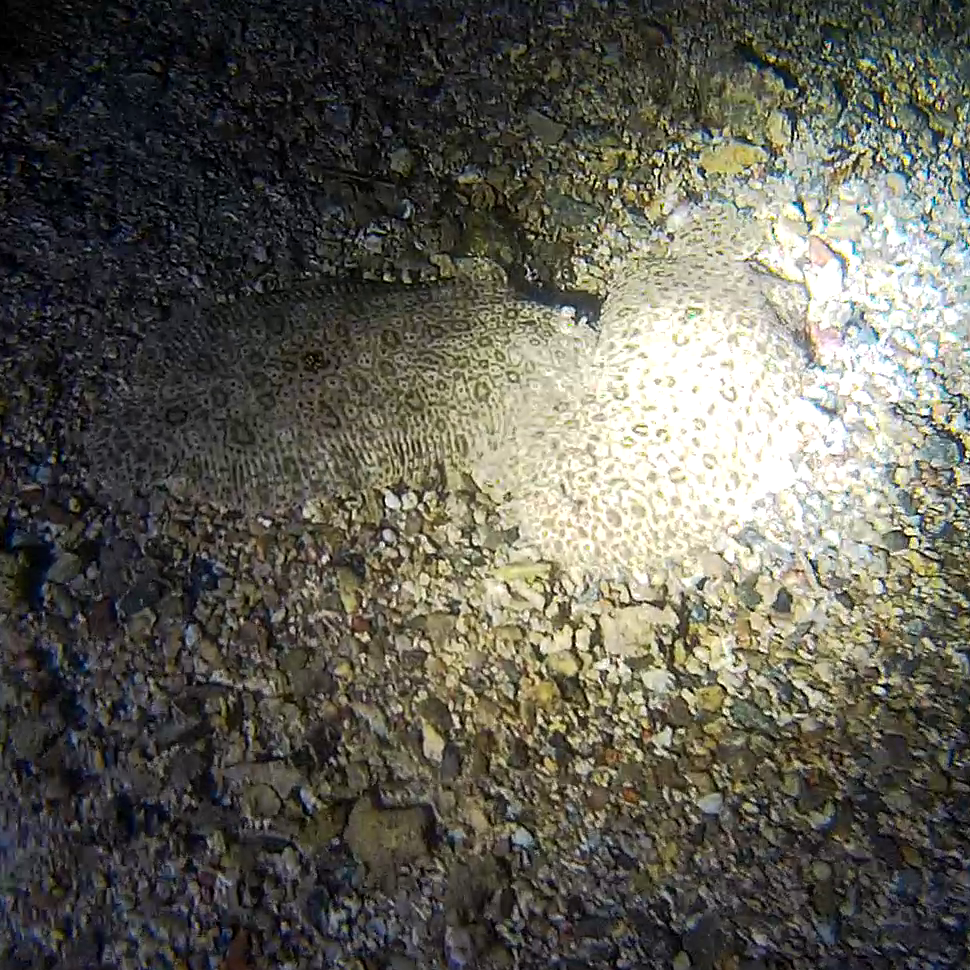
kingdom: Animalia
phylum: Chordata
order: Pleuronectiformes
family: Soleidae
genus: Pardachirus
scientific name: Pardachirus marmoratus
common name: Finless sole
